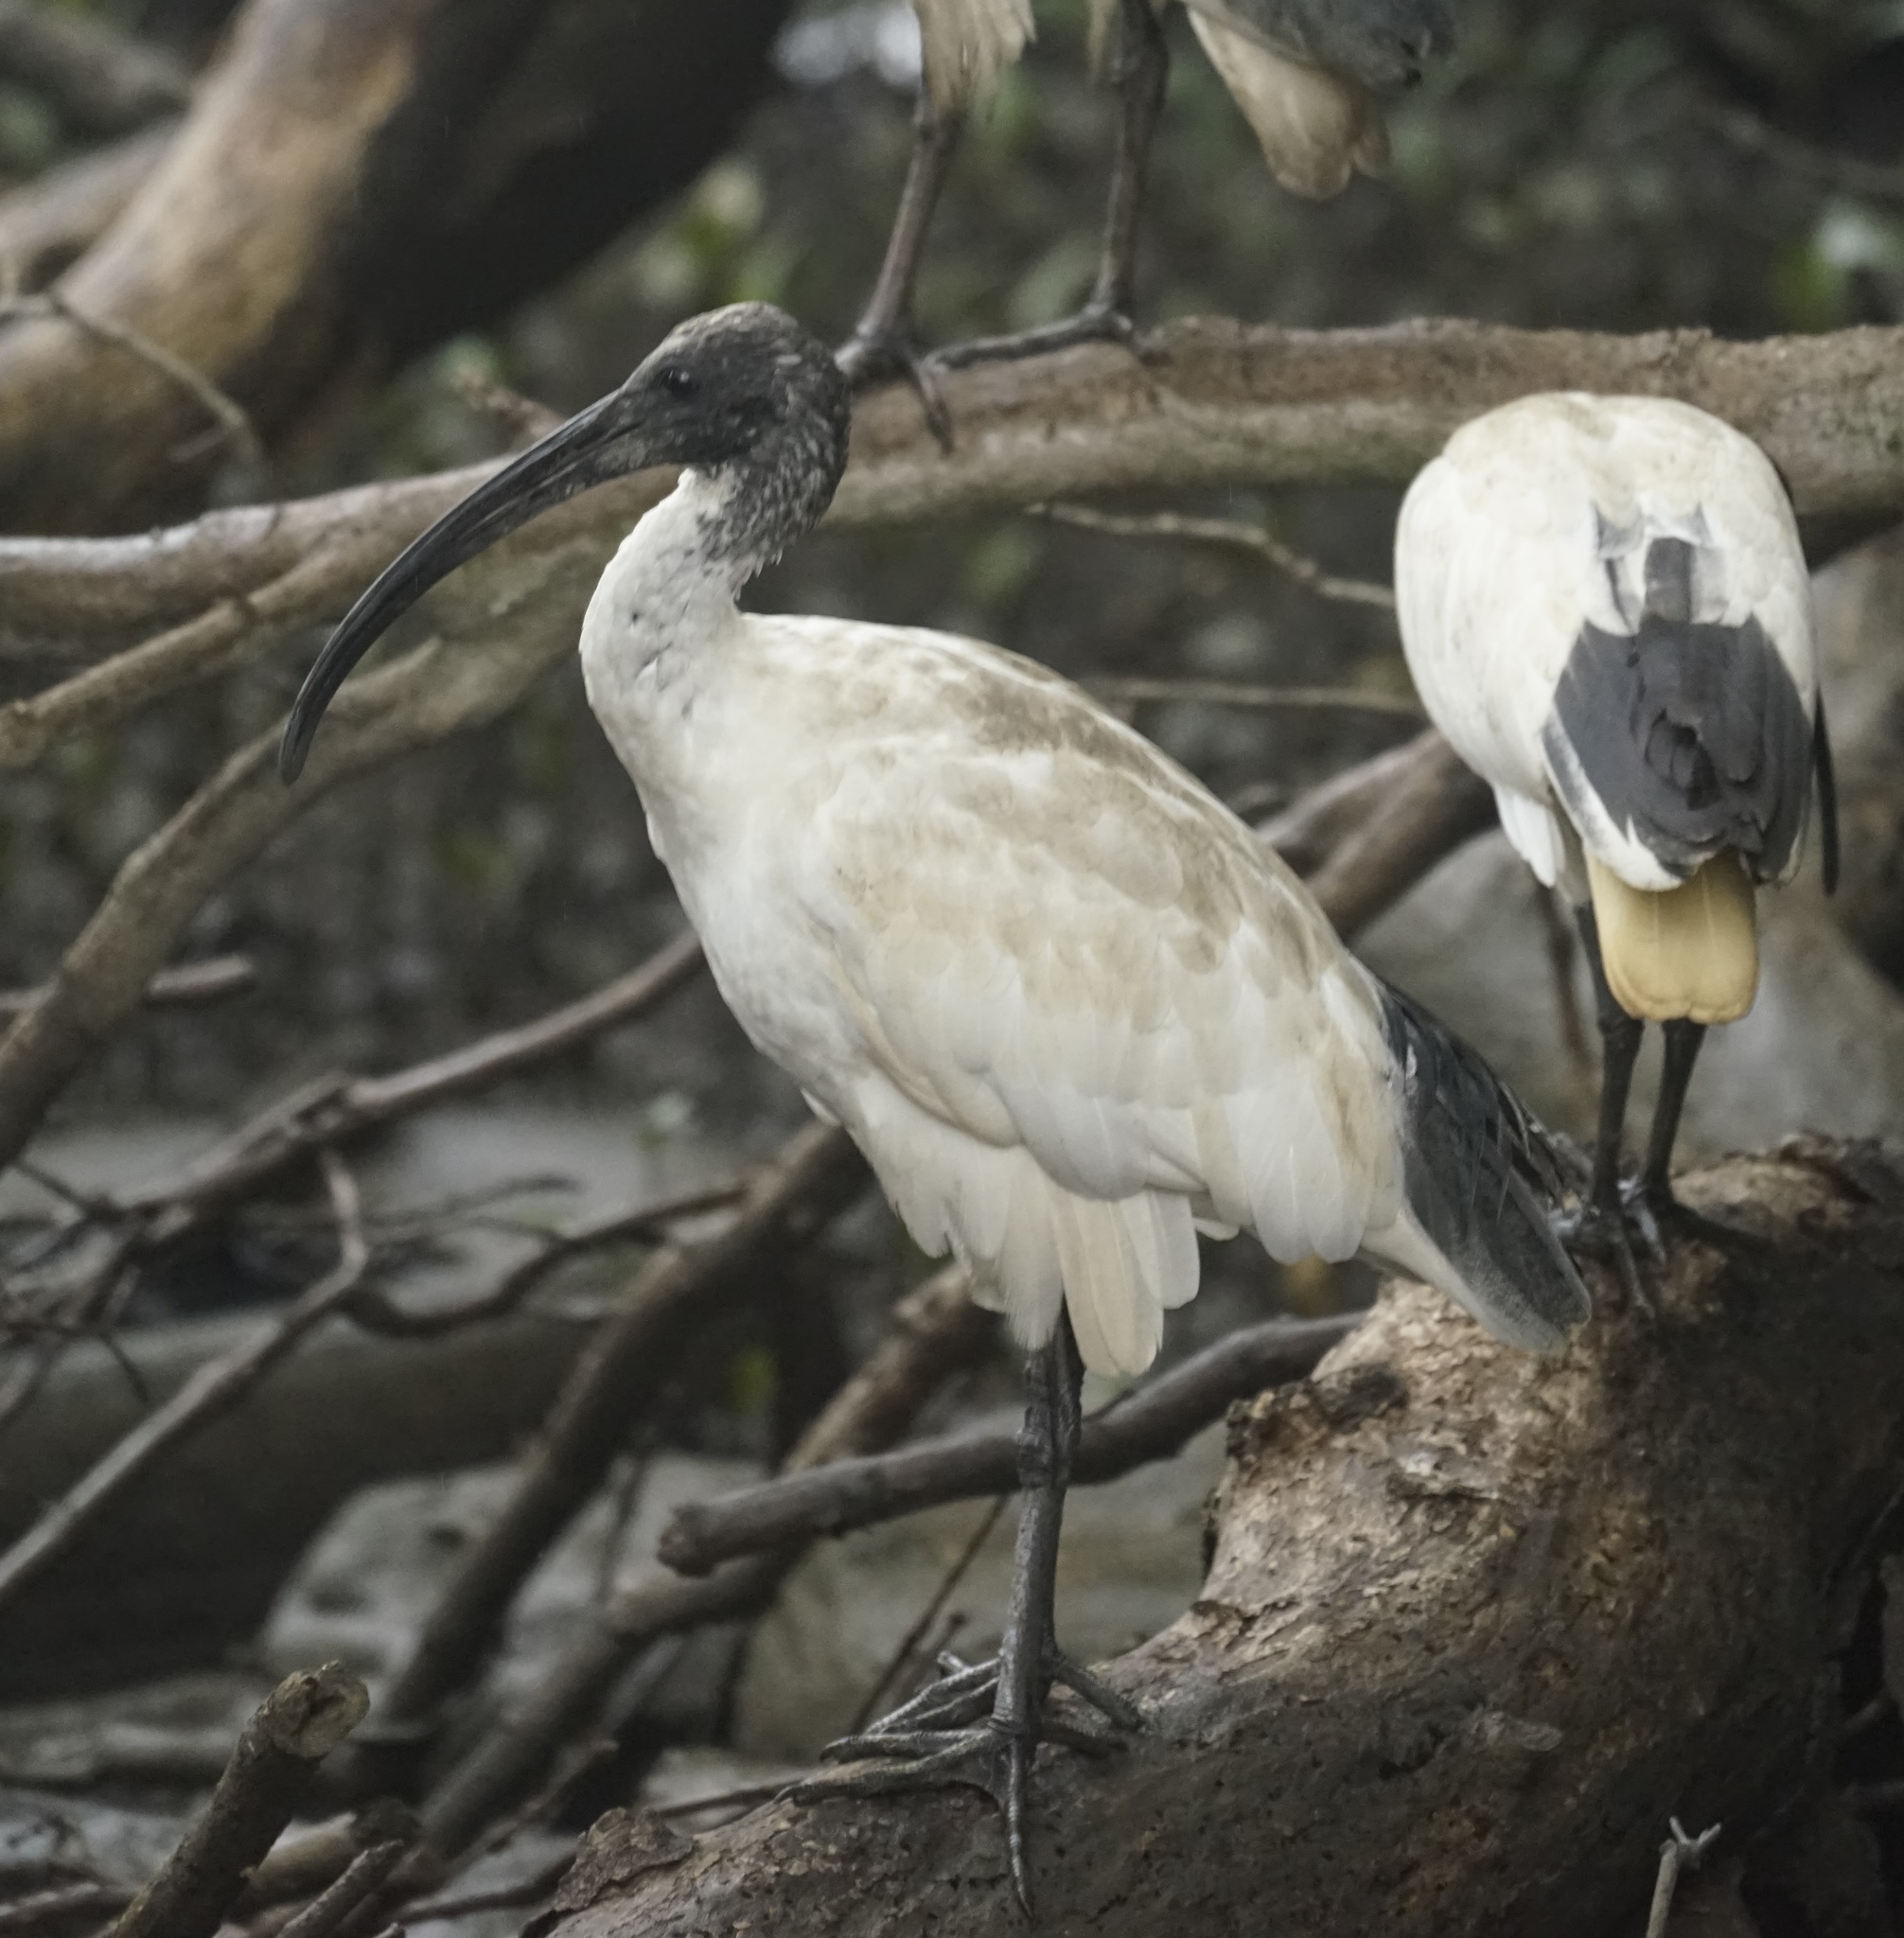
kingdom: Animalia
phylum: Chordata
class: Aves
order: Pelecaniformes
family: Threskiornithidae
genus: Threskiornis
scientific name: Threskiornis molucca
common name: Australian white ibis
